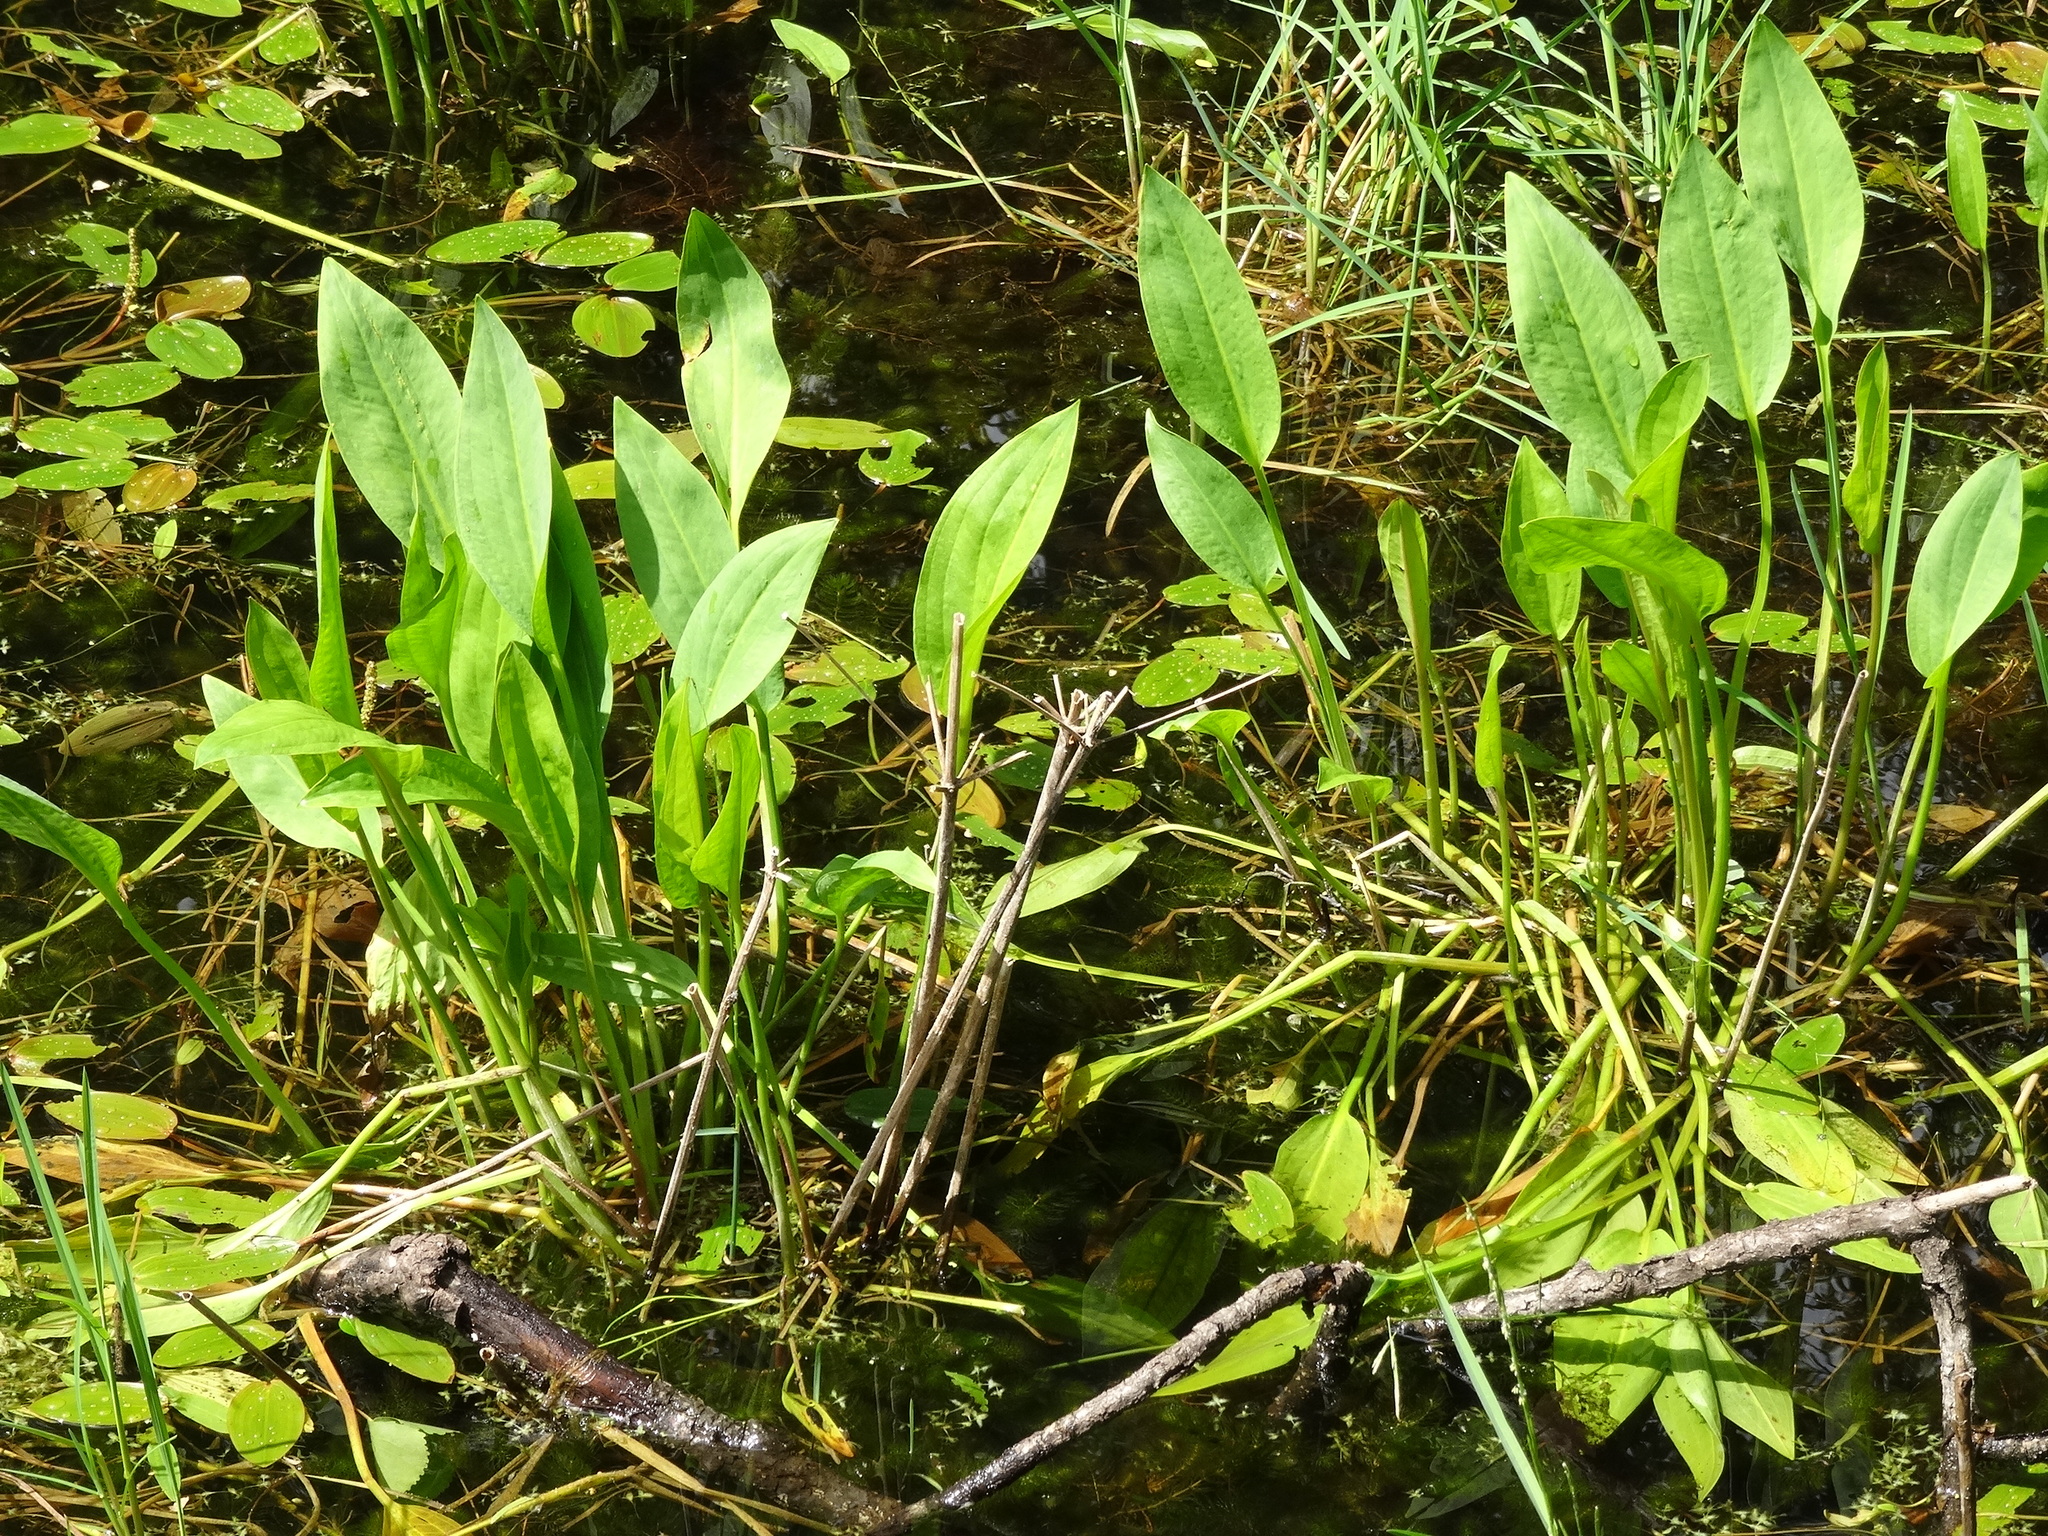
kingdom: Plantae
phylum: Tracheophyta
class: Liliopsida
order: Alismatales
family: Alismataceae
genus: Alisma
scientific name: Alisma plantago-aquatica
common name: Water-plantain
